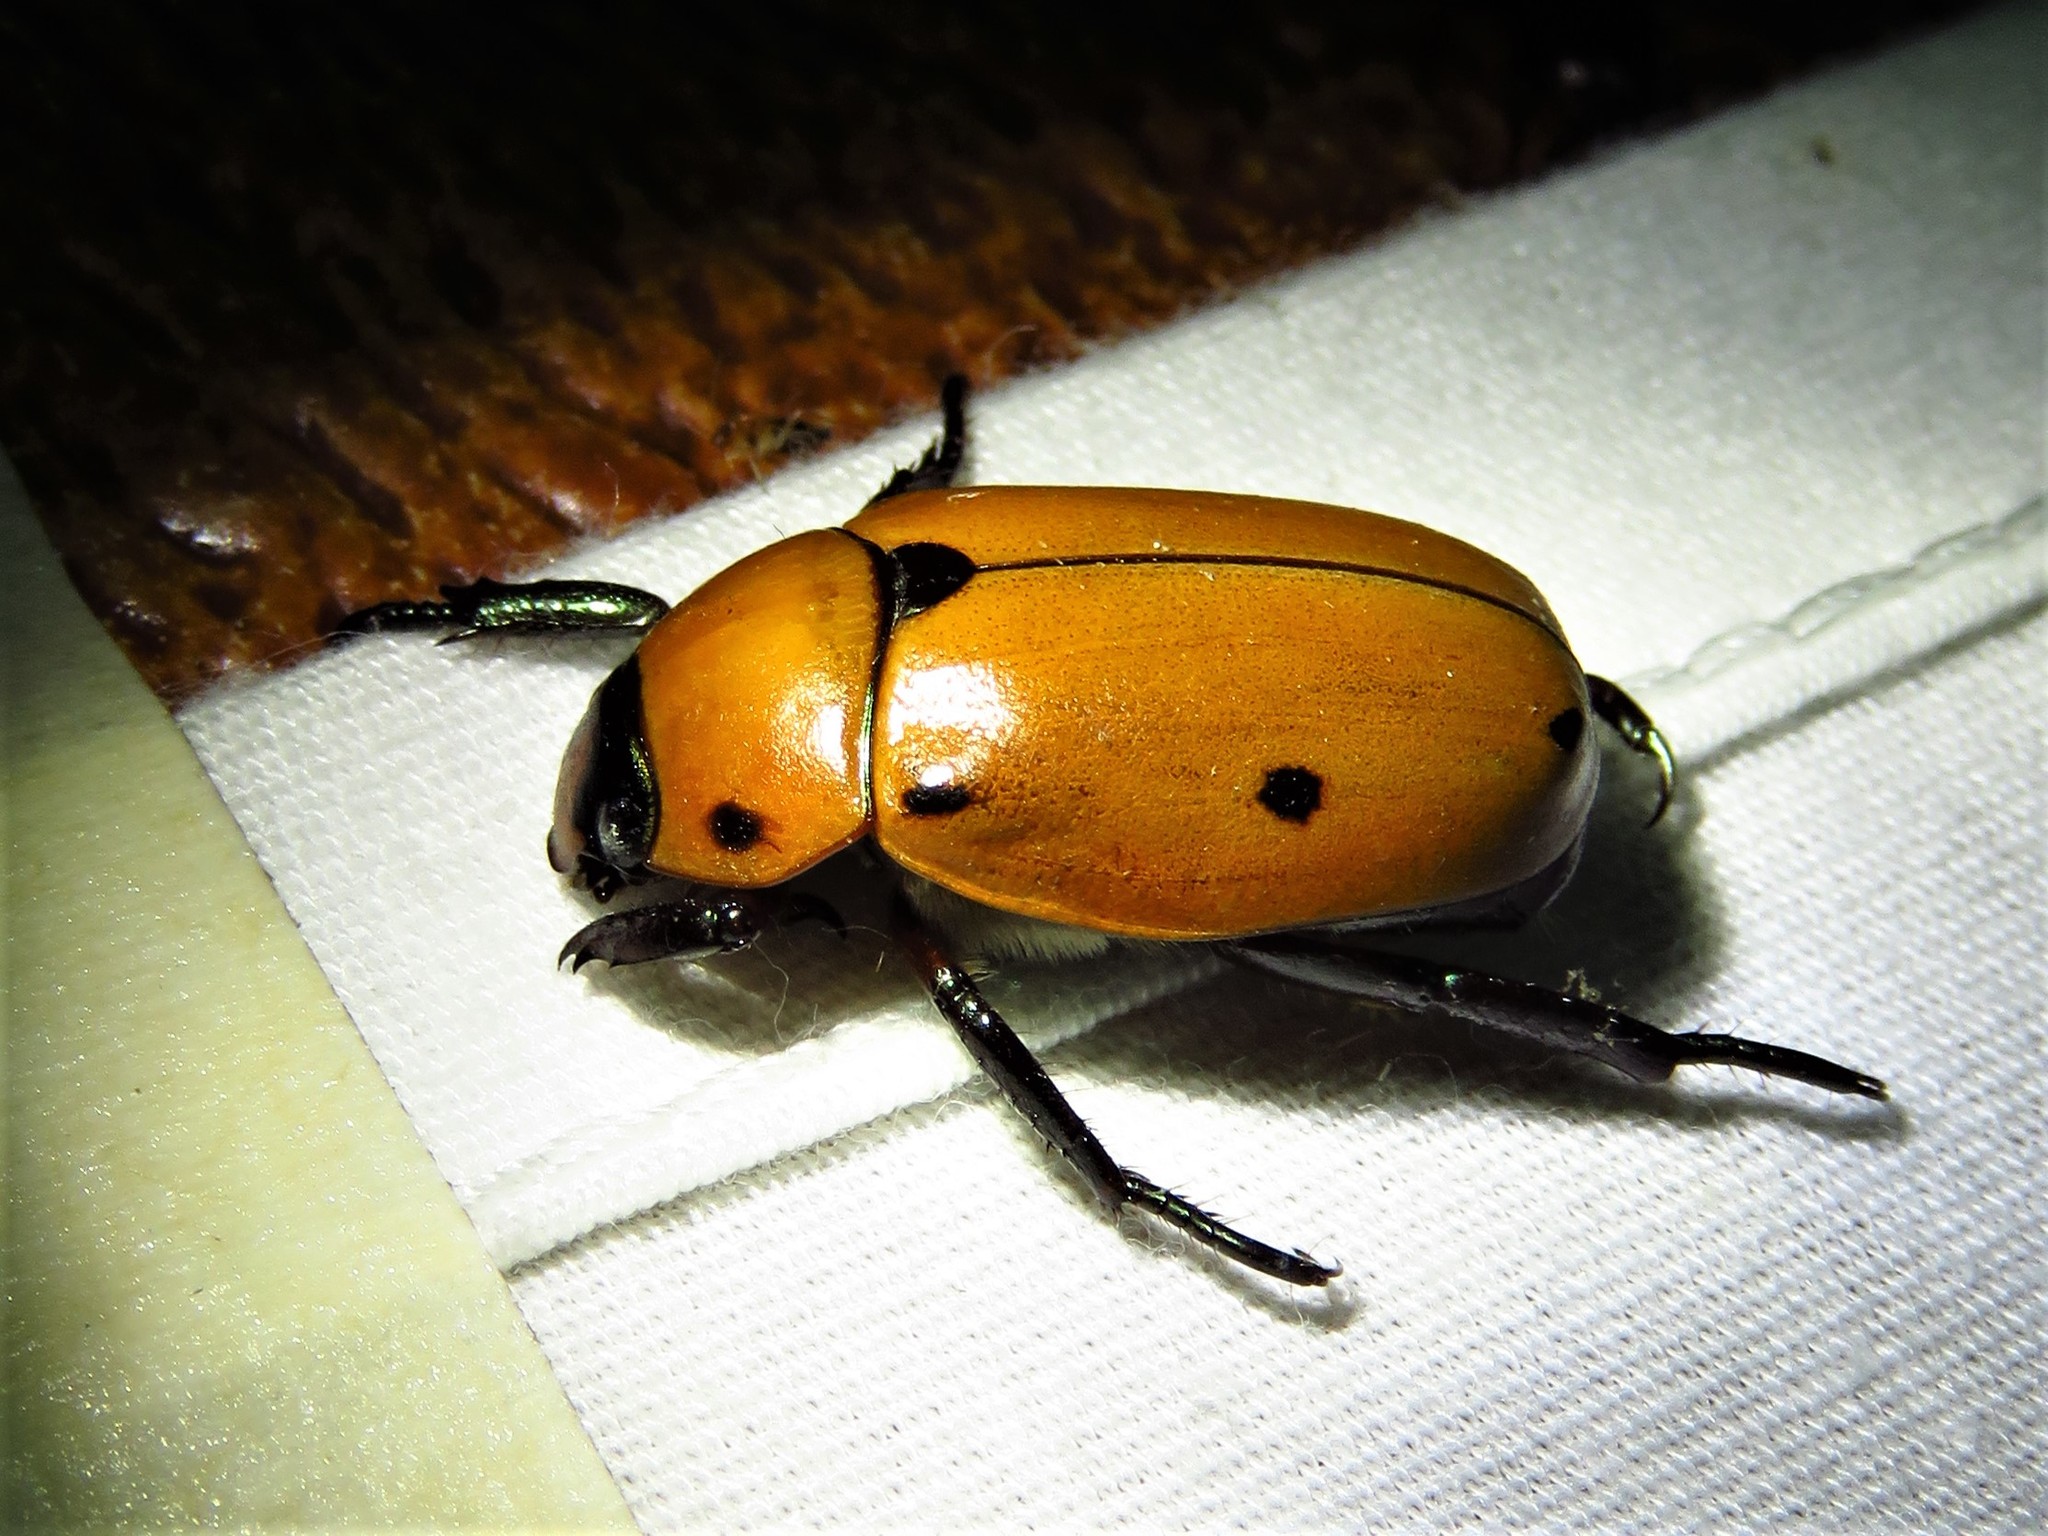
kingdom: Animalia
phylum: Arthropoda
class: Insecta
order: Coleoptera
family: Scarabaeidae
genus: Pelidnota
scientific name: Pelidnota punctata
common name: Grapevine beetle
